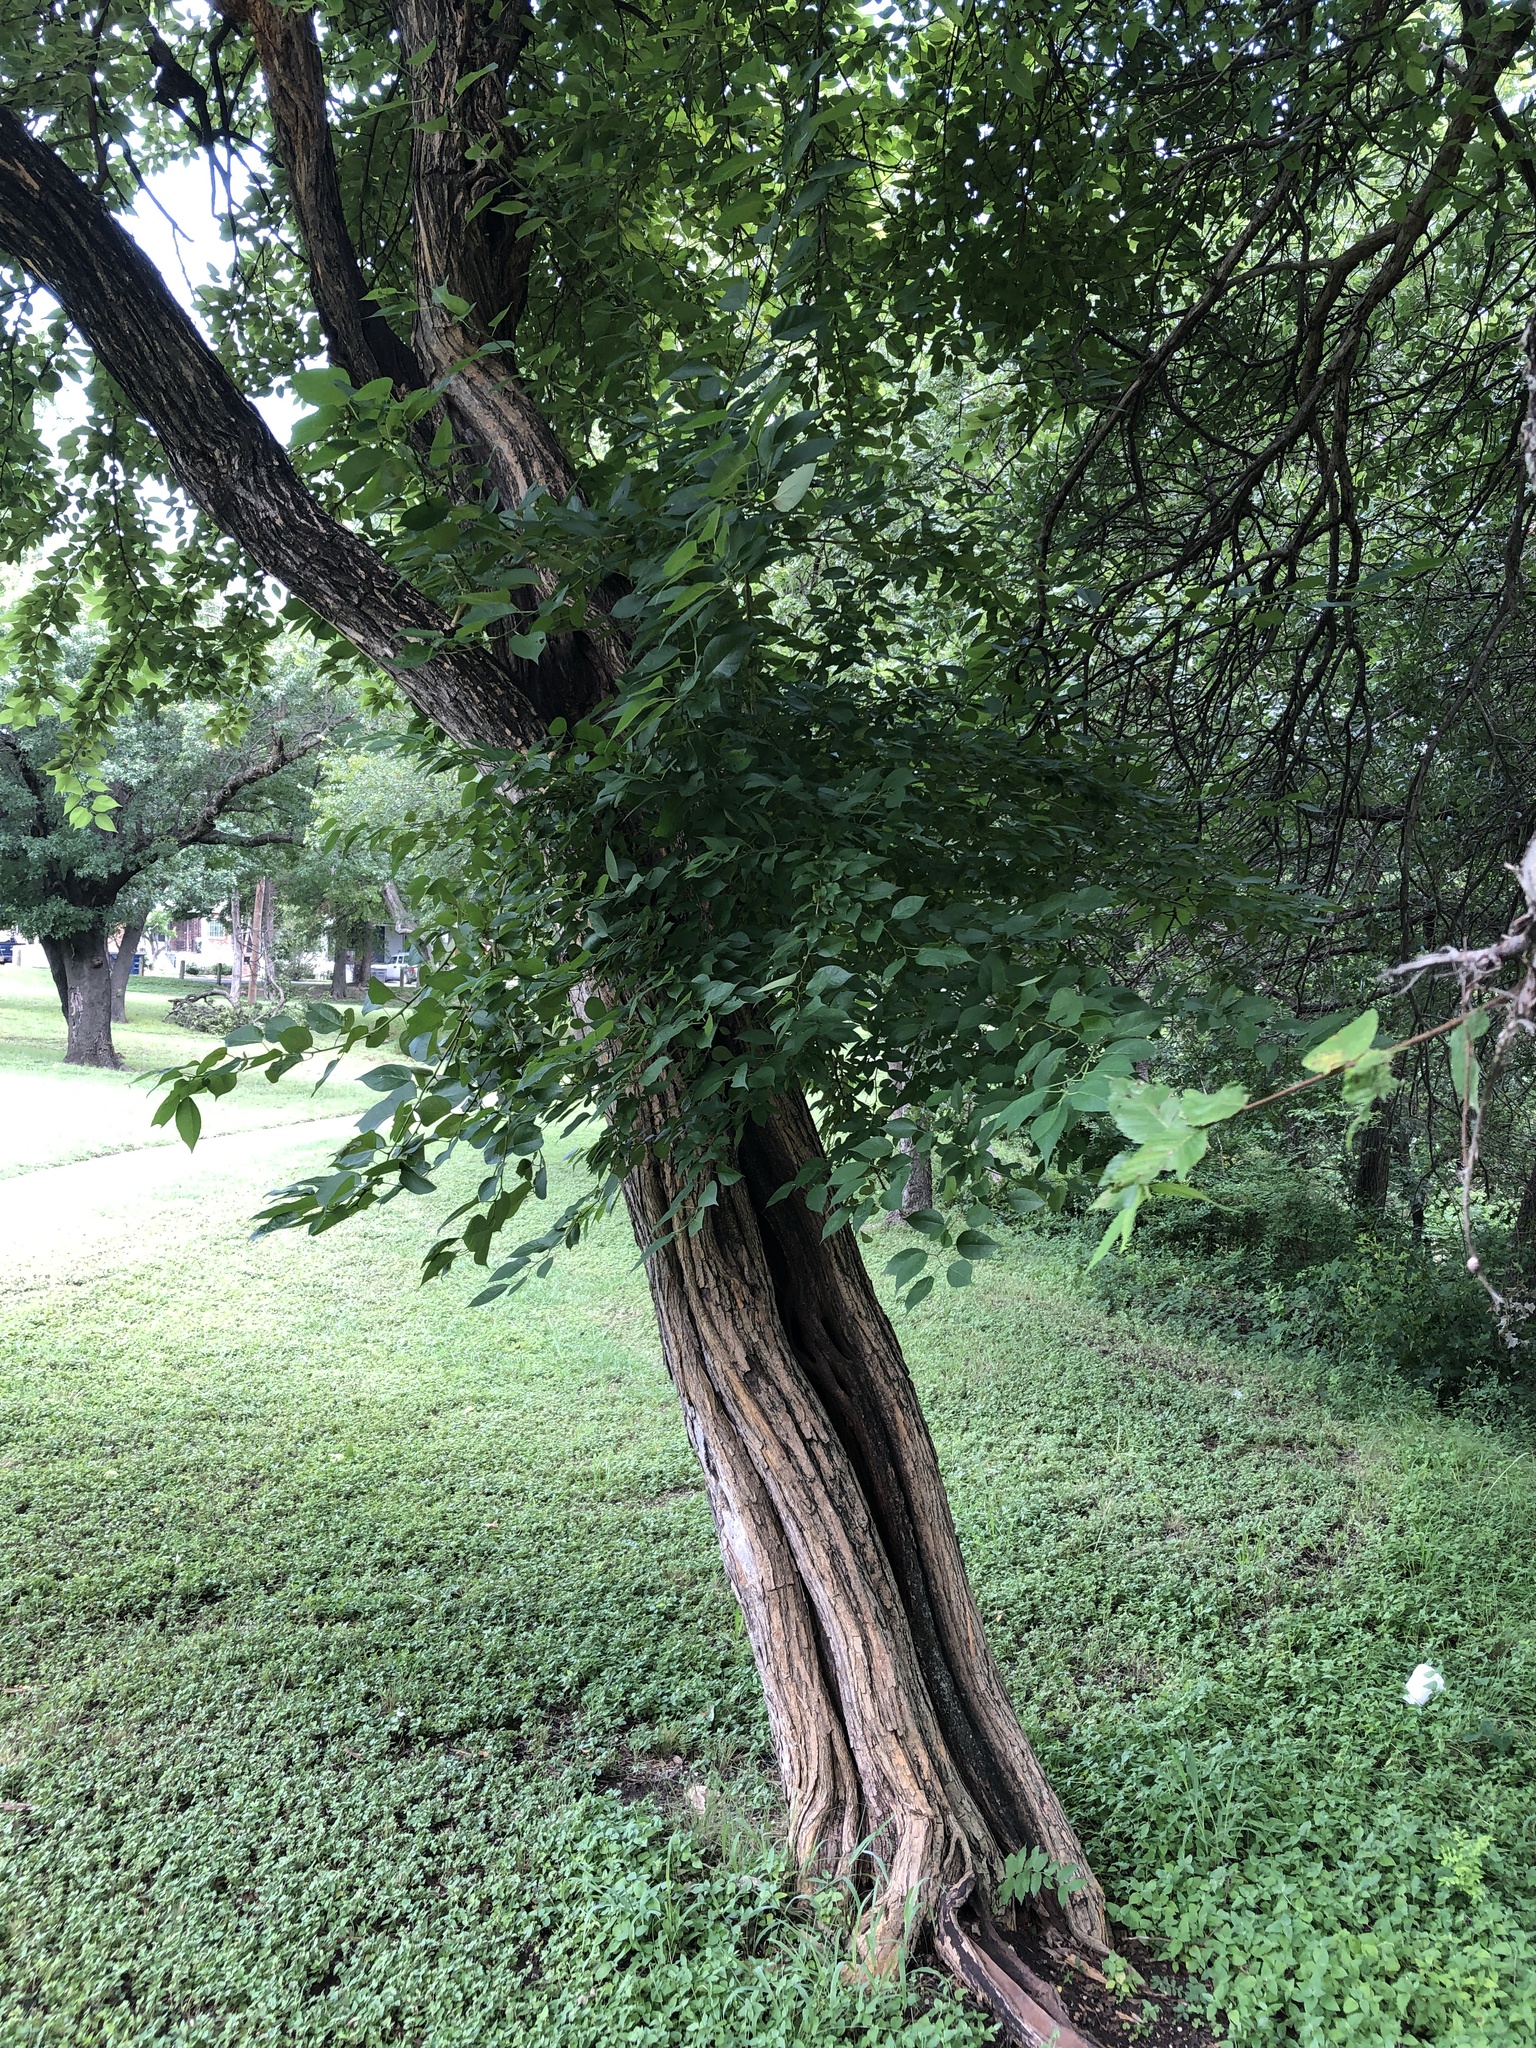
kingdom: Plantae
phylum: Tracheophyta
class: Magnoliopsida
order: Rosales
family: Moraceae
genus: Maclura
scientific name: Maclura pomifera
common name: Osage-orange
